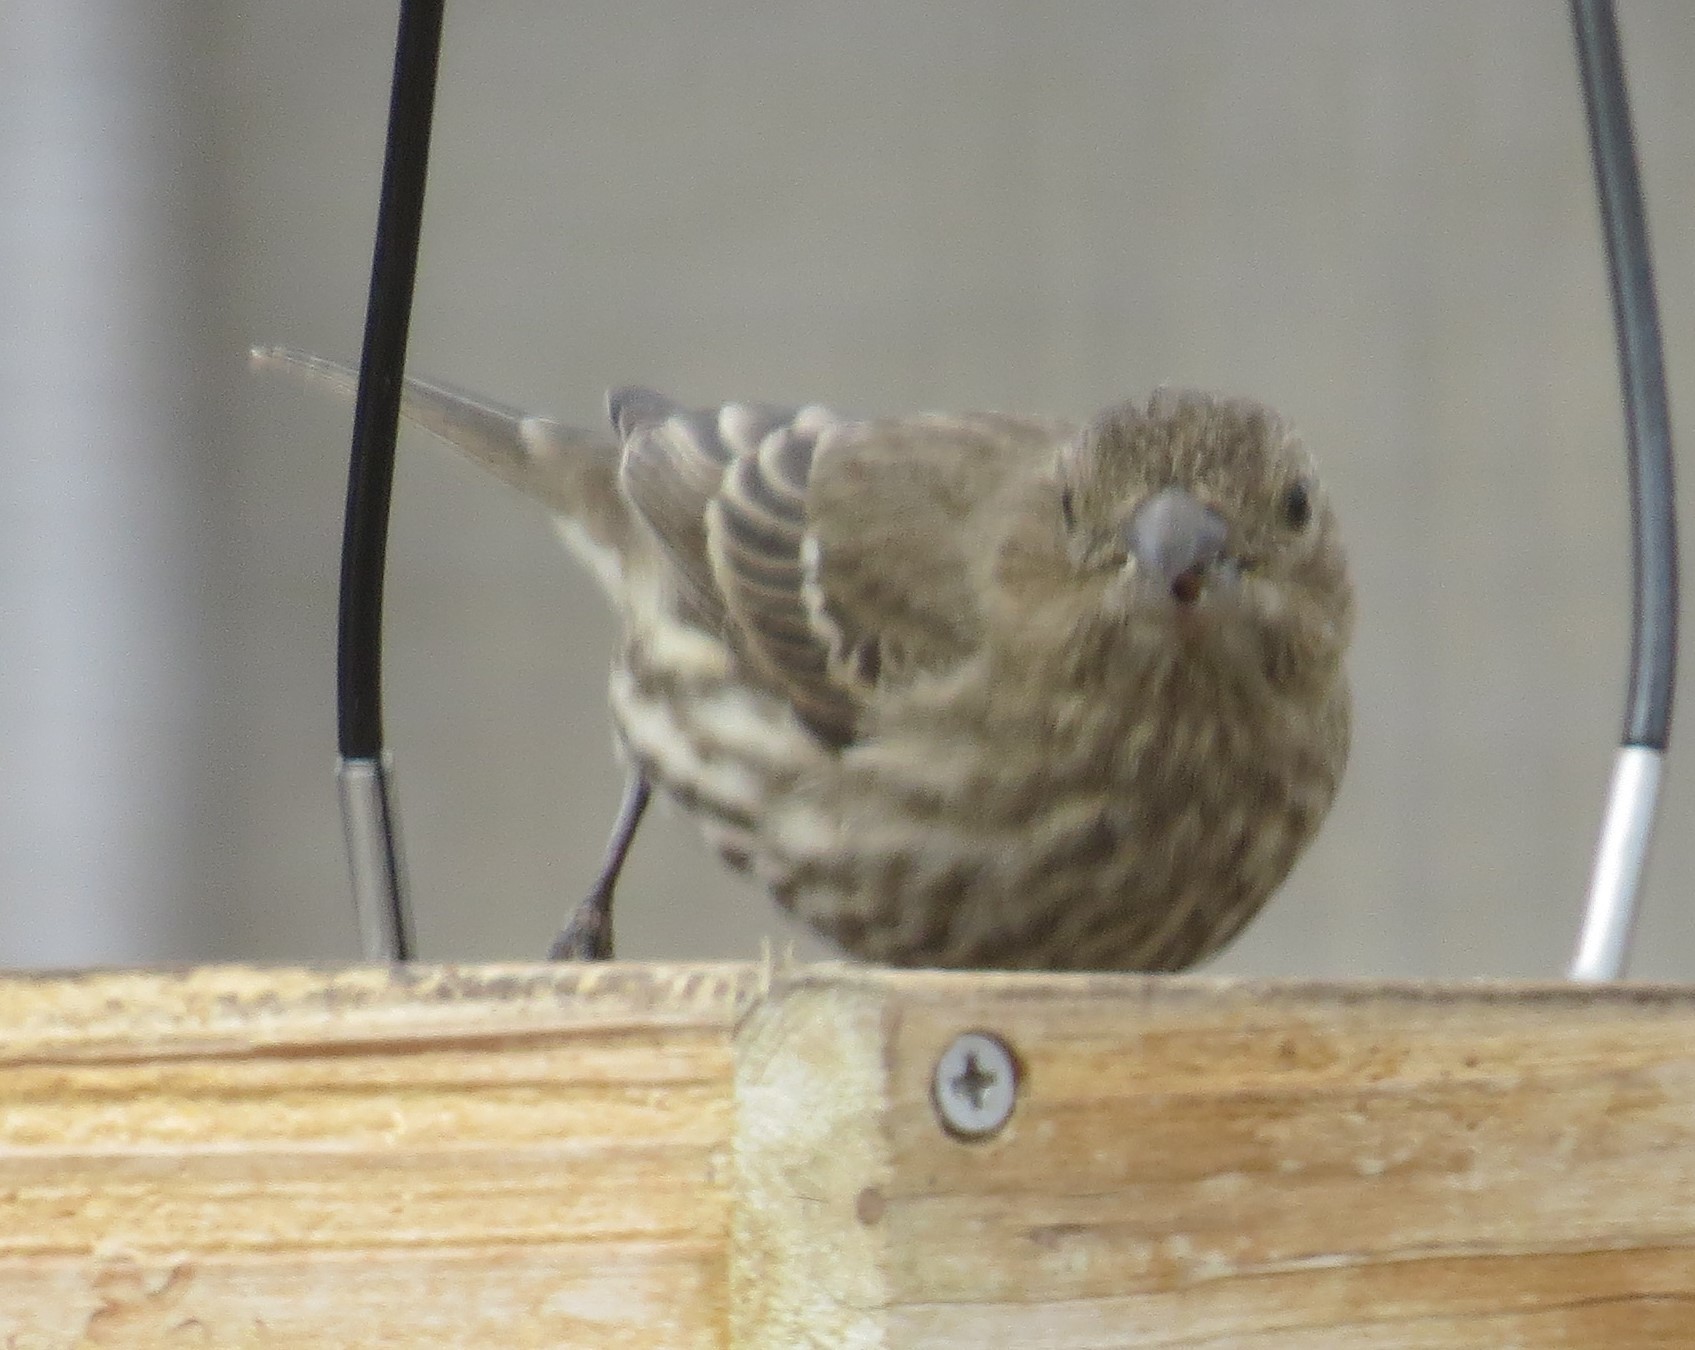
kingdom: Animalia
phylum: Chordata
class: Aves
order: Passeriformes
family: Fringillidae
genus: Haemorhous
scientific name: Haemorhous mexicanus
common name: House finch
